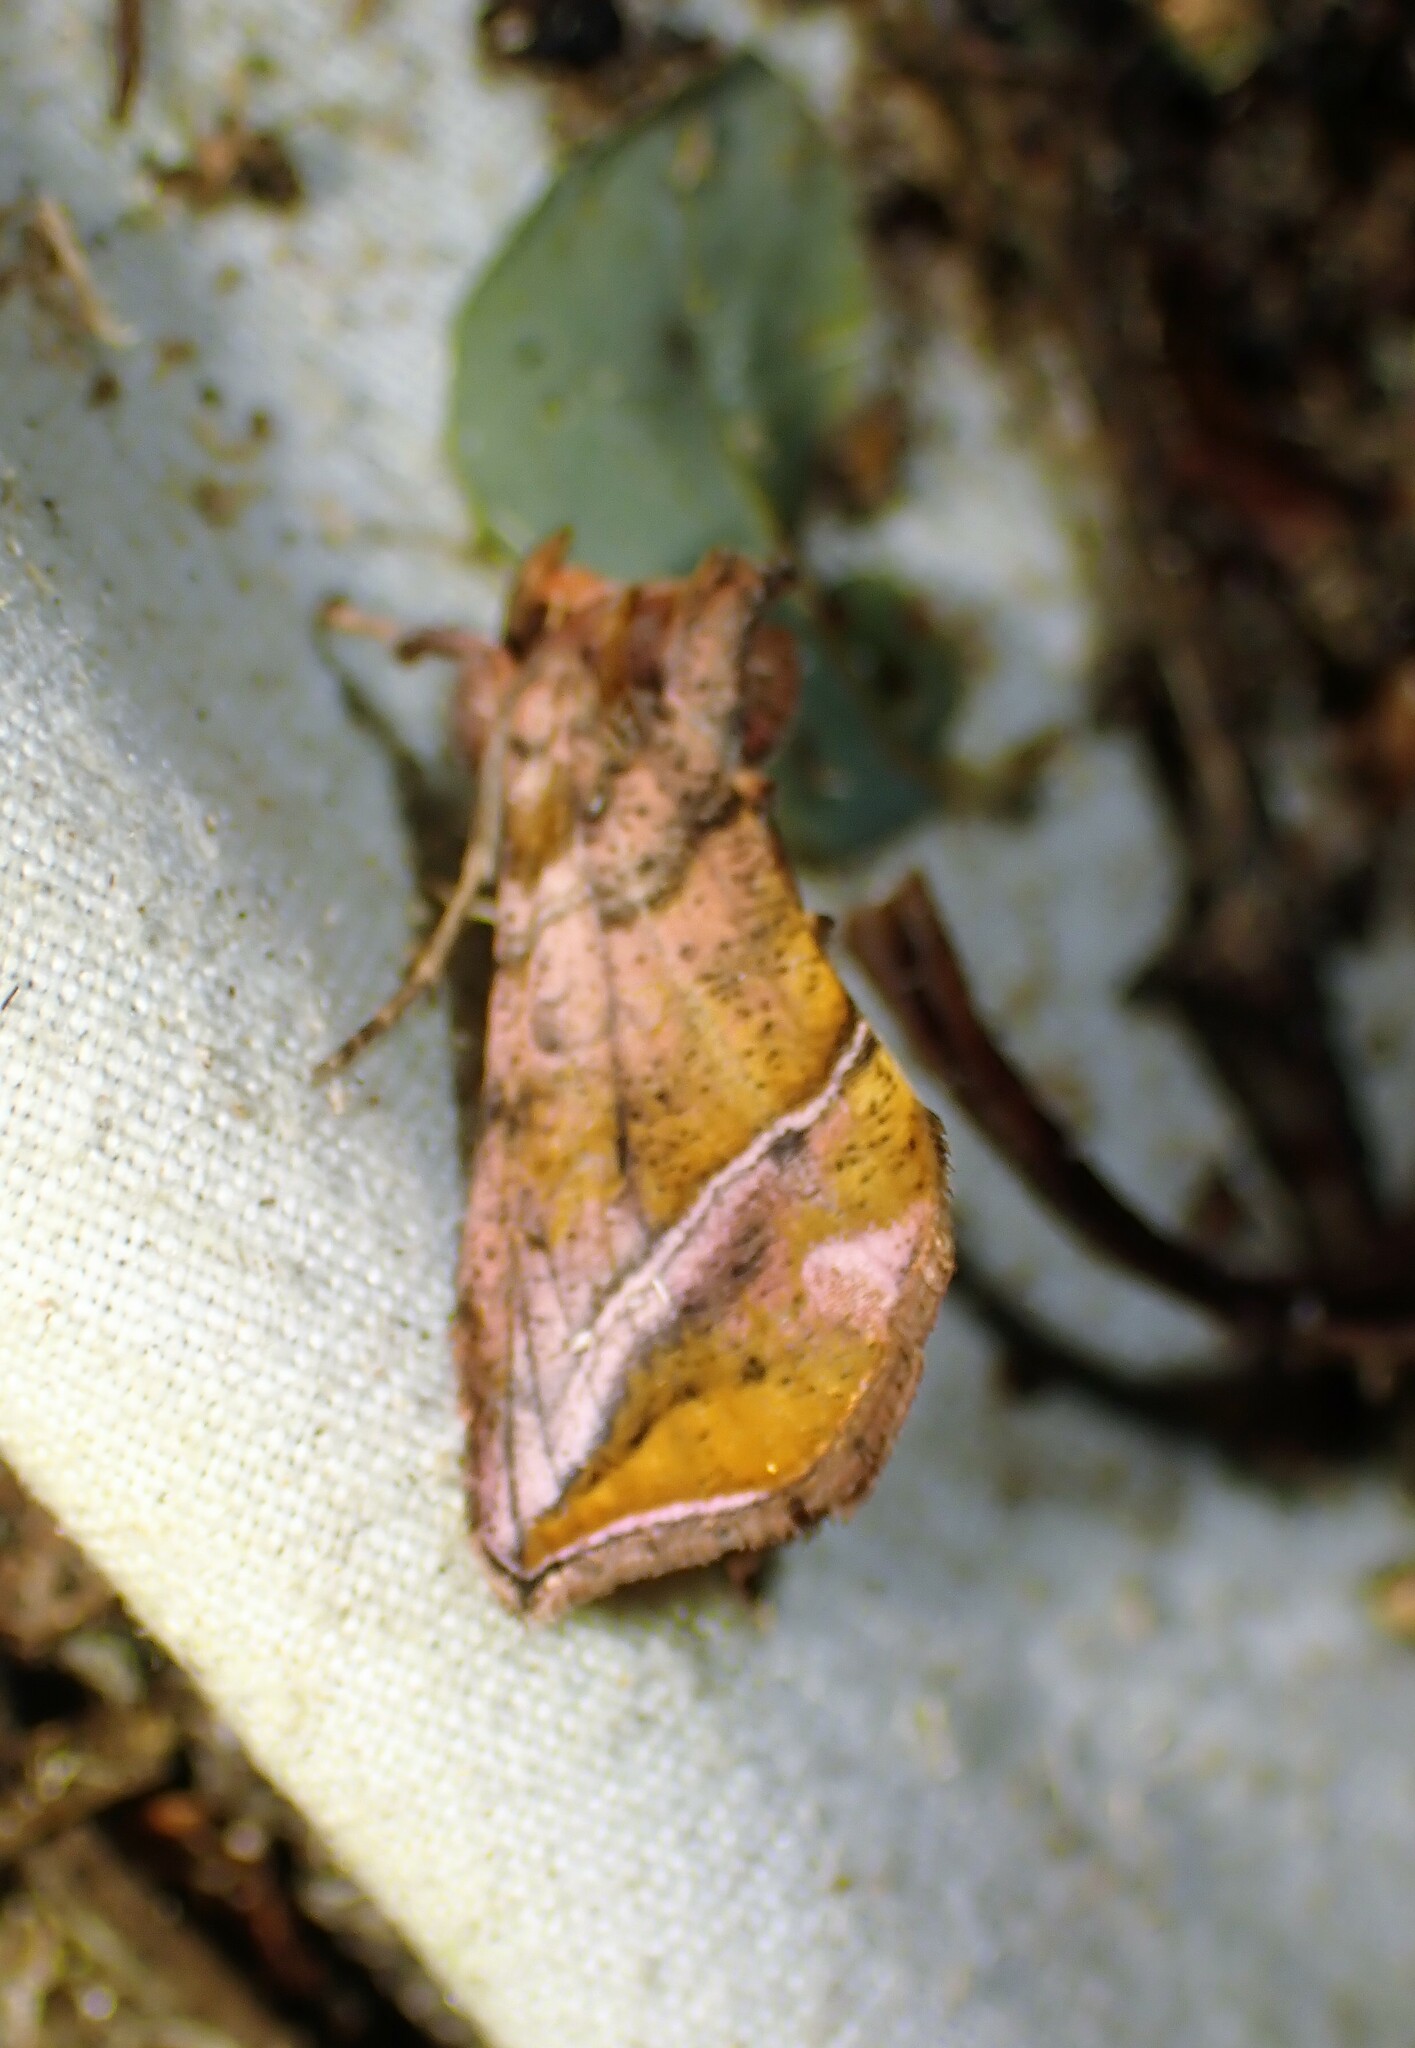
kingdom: Animalia
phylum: Arthropoda
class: Insecta
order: Lepidoptera
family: Noctuidae
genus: Pseudeva
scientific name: Pseudeva purpurigera
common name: Straight-lined looper moth
